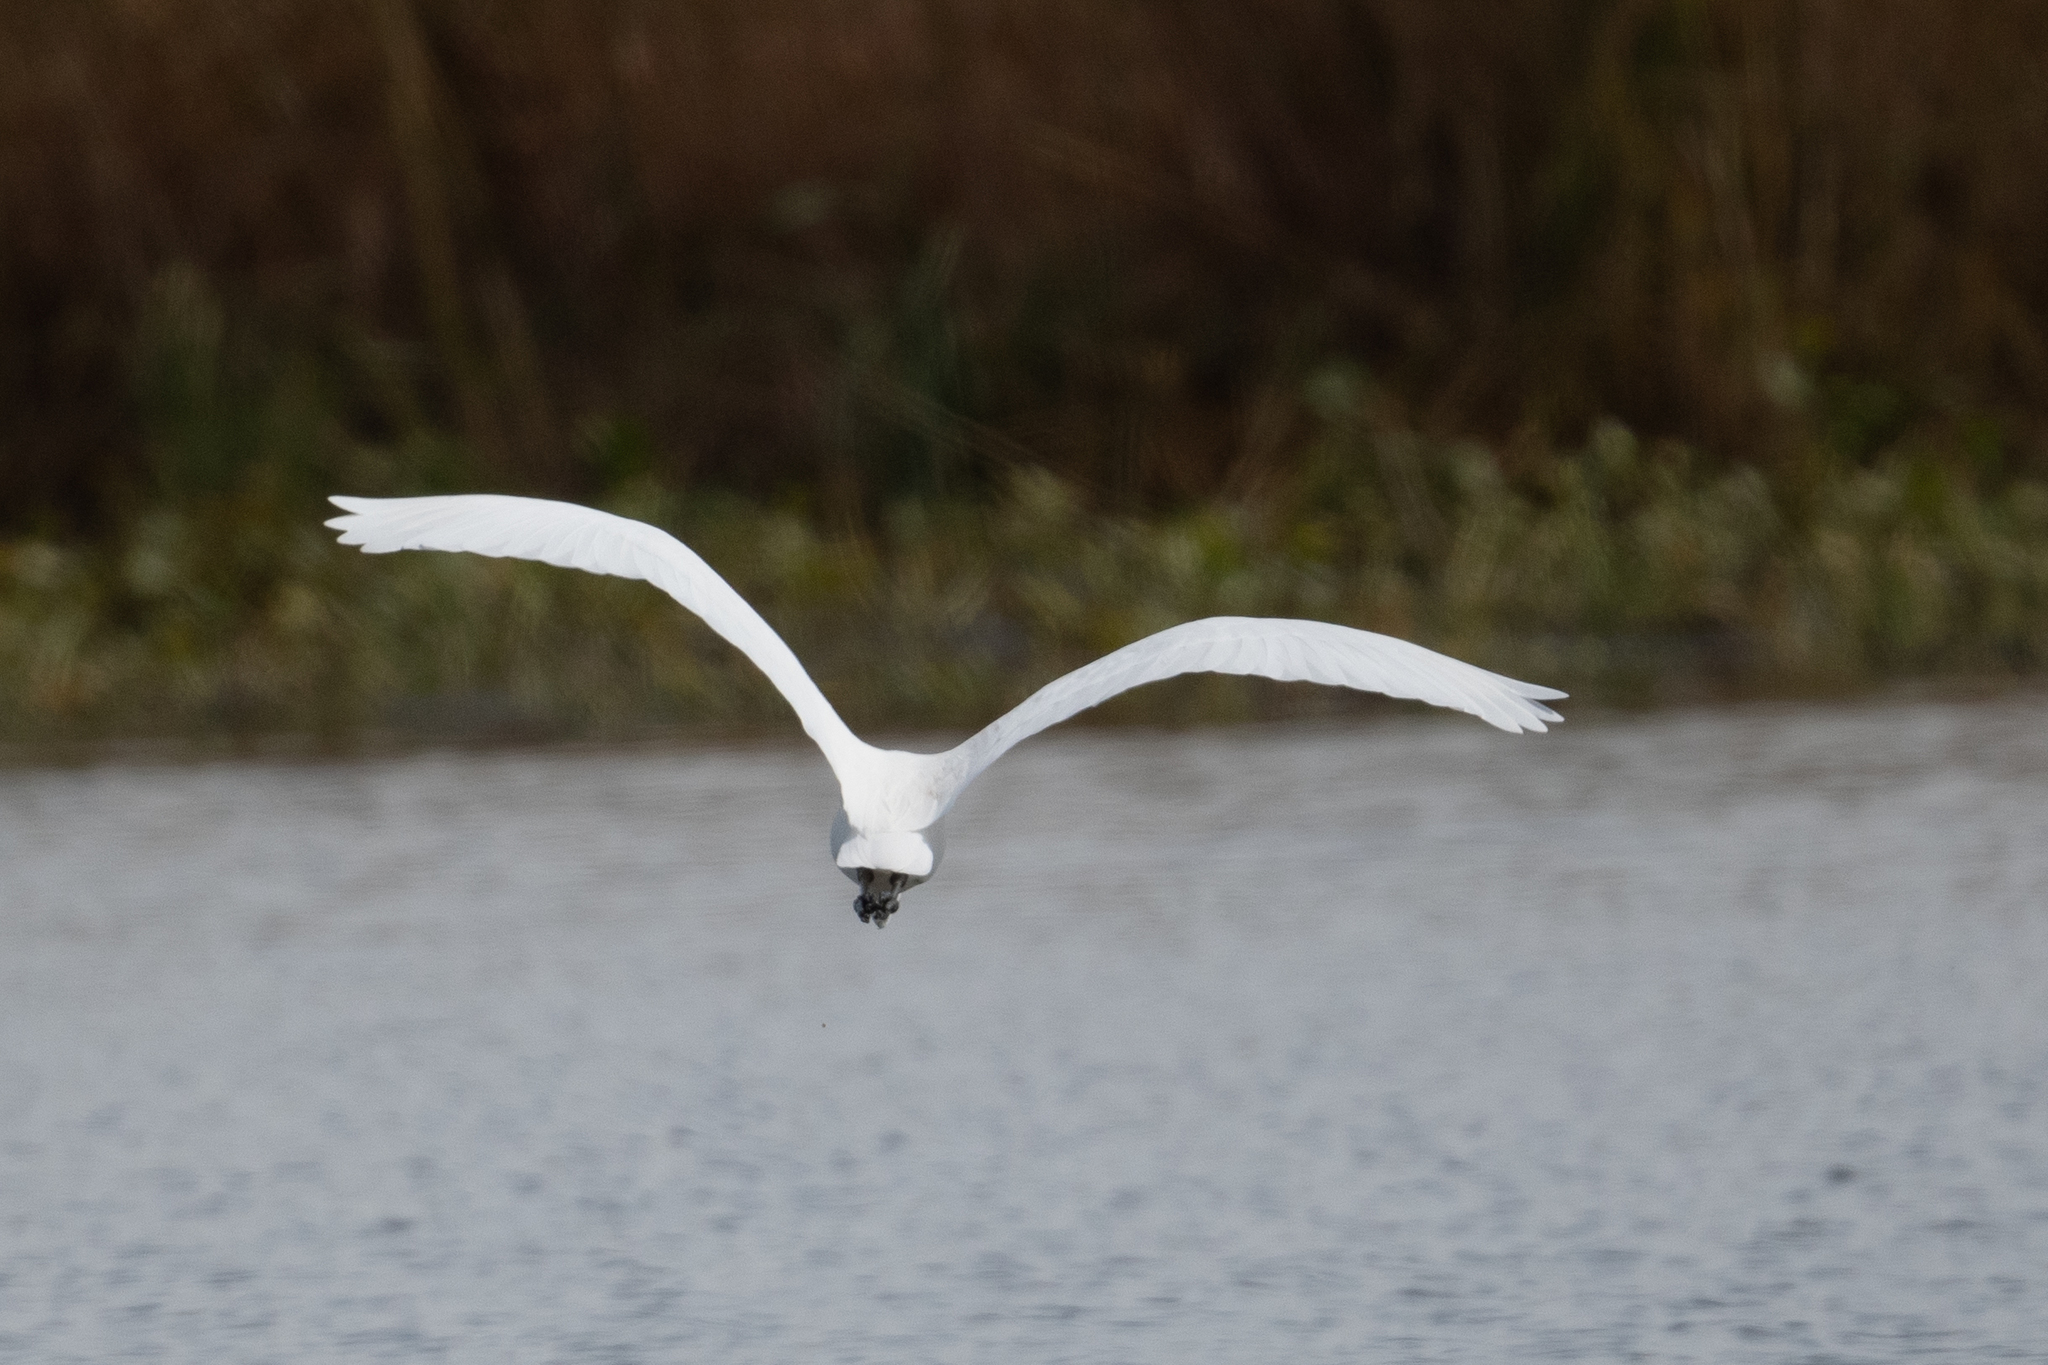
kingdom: Animalia
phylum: Chordata
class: Aves
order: Pelecaniformes
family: Ardeidae
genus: Ardea
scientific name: Ardea alba
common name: Great egret
